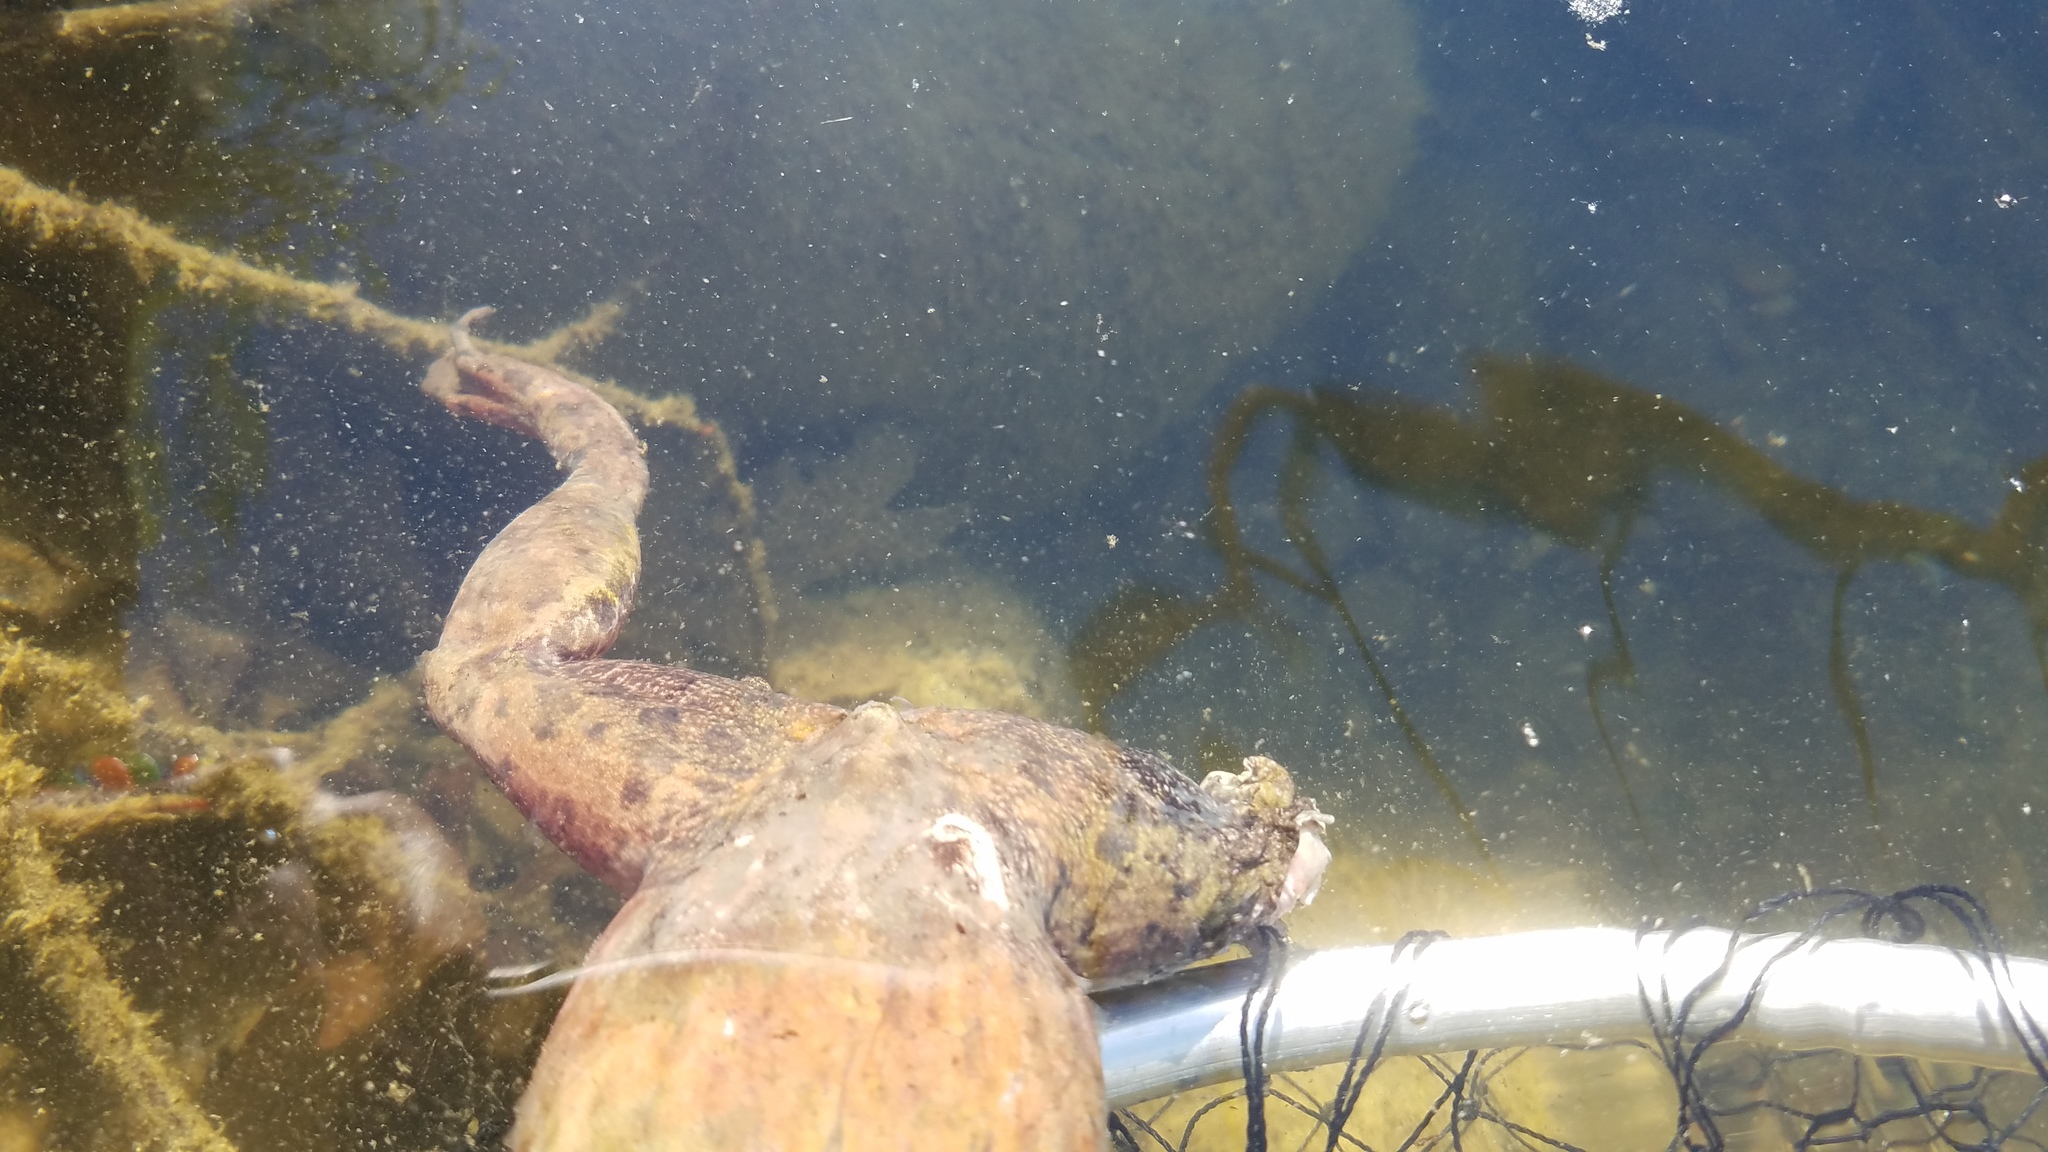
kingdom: Animalia
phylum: Chordata
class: Amphibia
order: Anura
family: Ranidae
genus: Lithobates
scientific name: Lithobates catesbeianus
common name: American bullfrog
